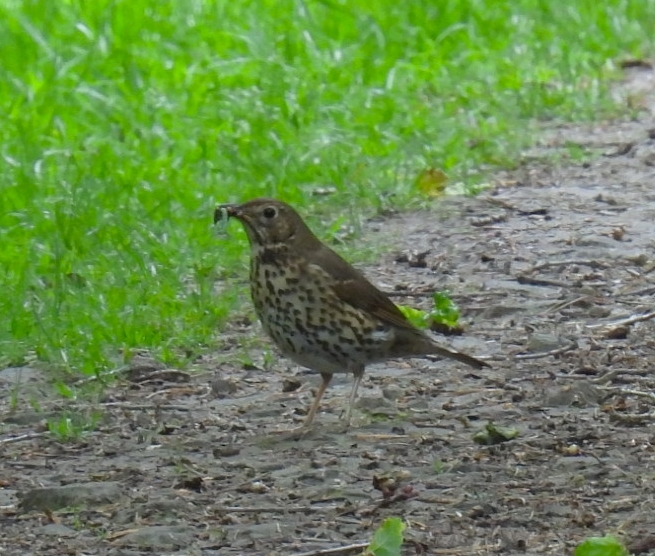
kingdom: Animalia
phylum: Chordata
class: Aves
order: Passeriformes
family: Turdidae
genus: Turdus
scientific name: Turdus philomelos
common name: Song thrush
